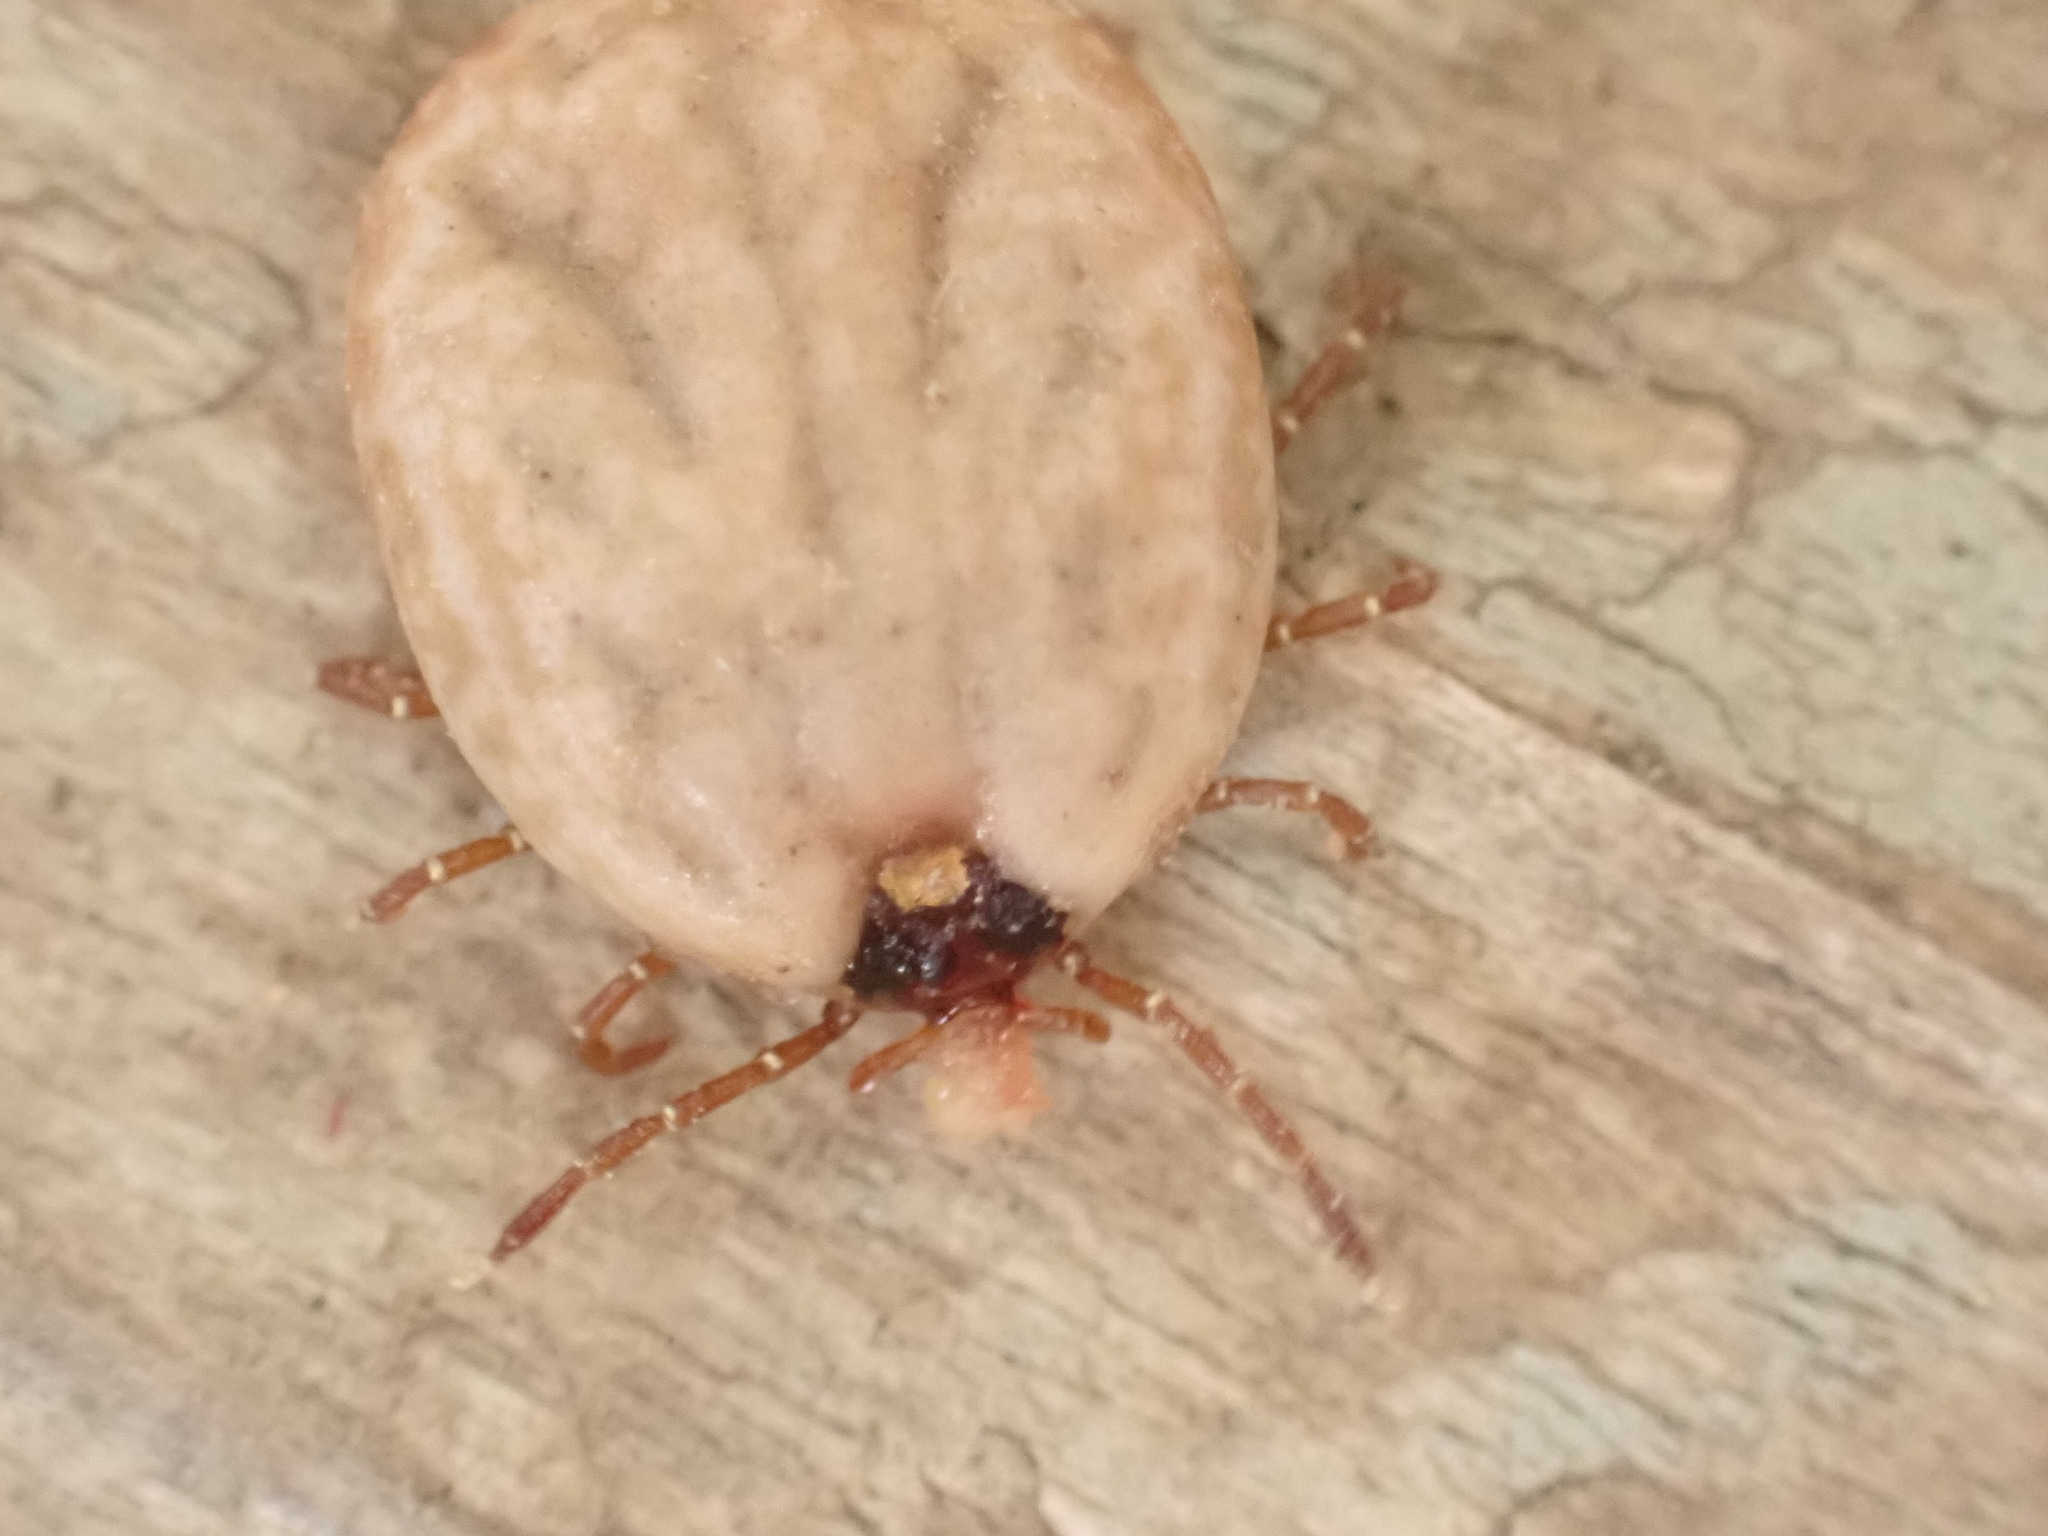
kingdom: Animalia
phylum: Arthropoda
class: Arachnida
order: Ixodida
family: Ixodidae
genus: Amblyomma
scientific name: Amblyomma americanum
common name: Lone star tick
